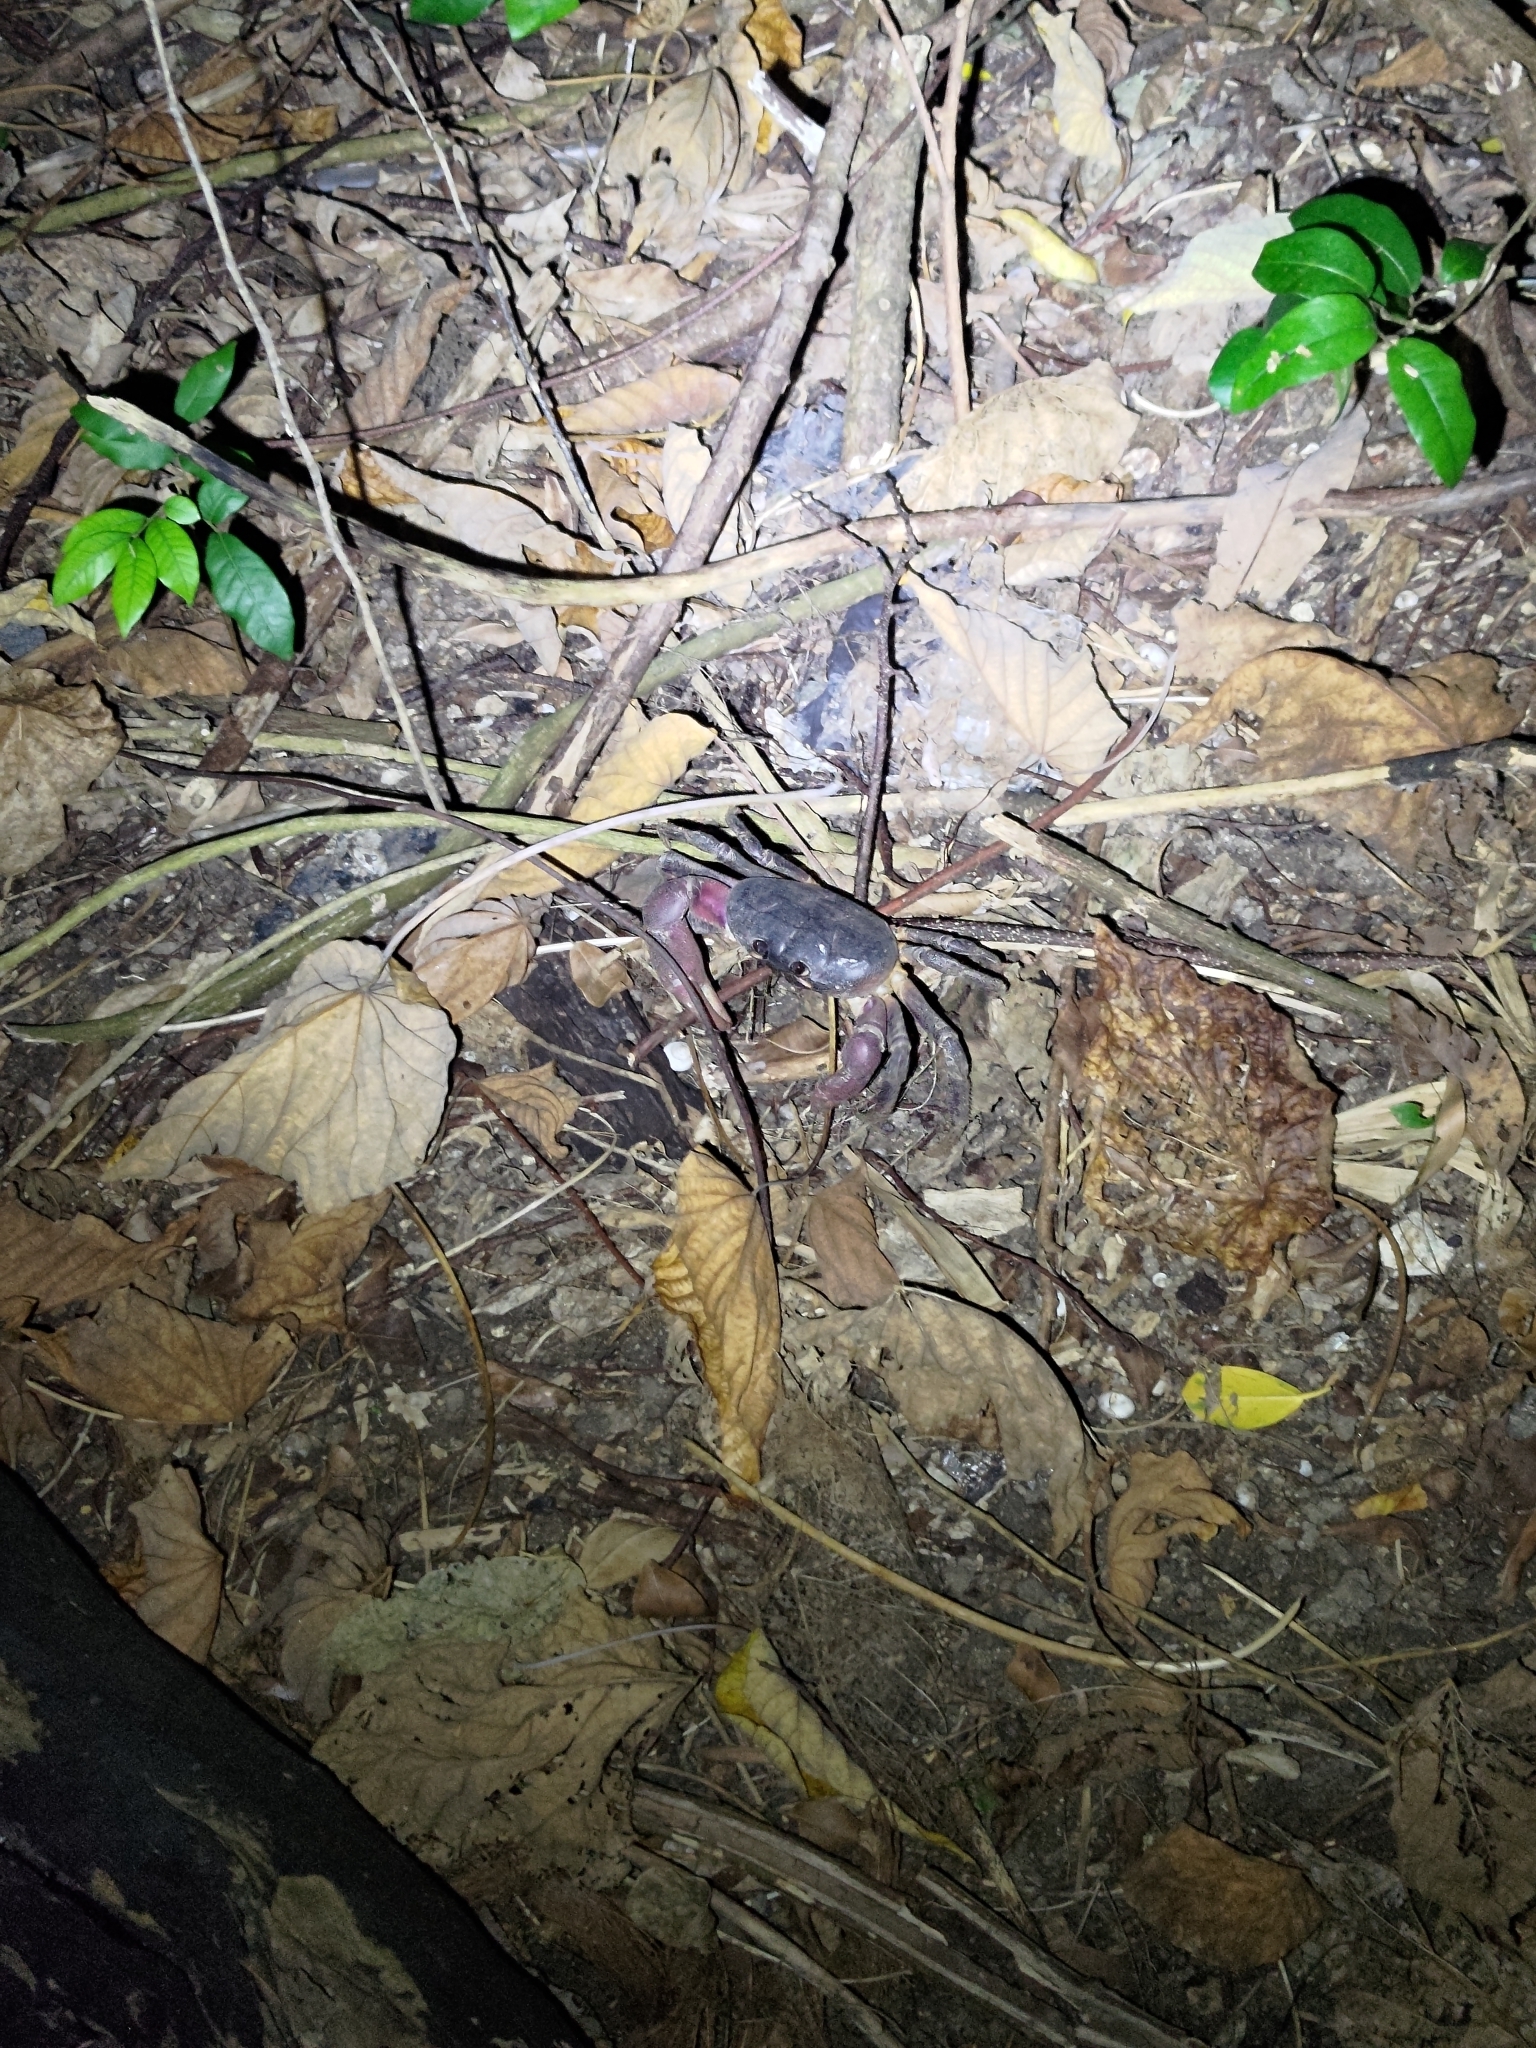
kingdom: Animalia
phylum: Arthropoda
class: Malacostraca
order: Decapoda
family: Gecarcinidae
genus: Gecarcoidea
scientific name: Gecarcoidea lalandii
